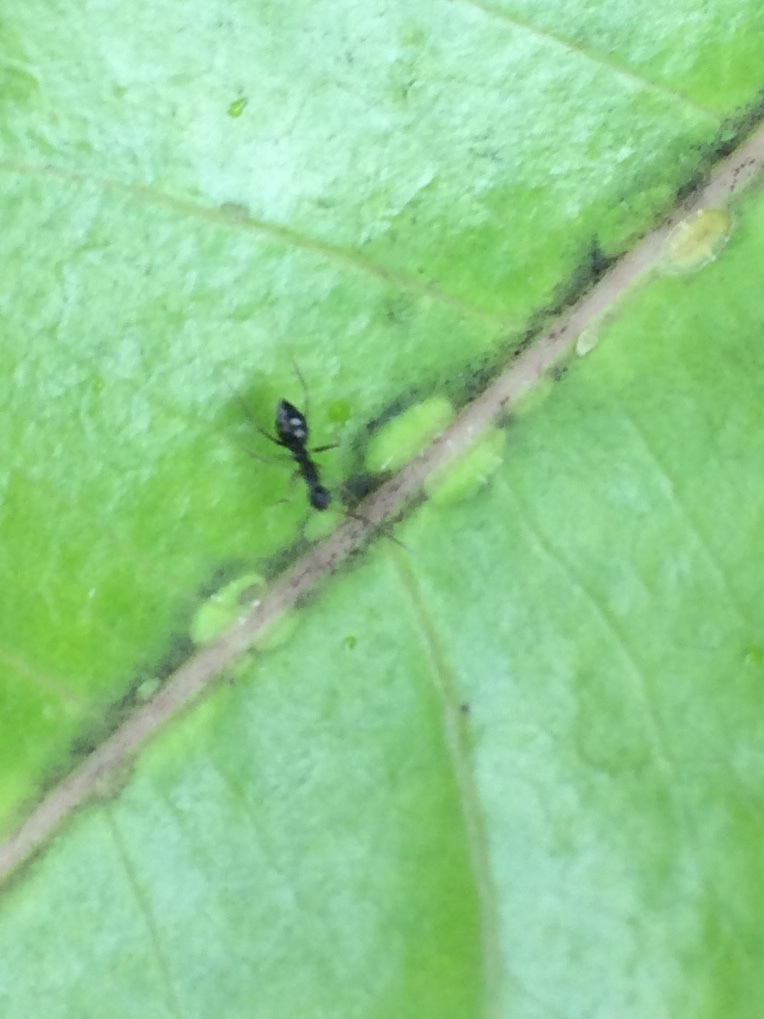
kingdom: Animalia
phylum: Arthropoda
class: Insecta
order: Hymenoptera
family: Formicidae
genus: Paratrechina
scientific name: Paratrechina longicornis
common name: Longhorned crazy ant
